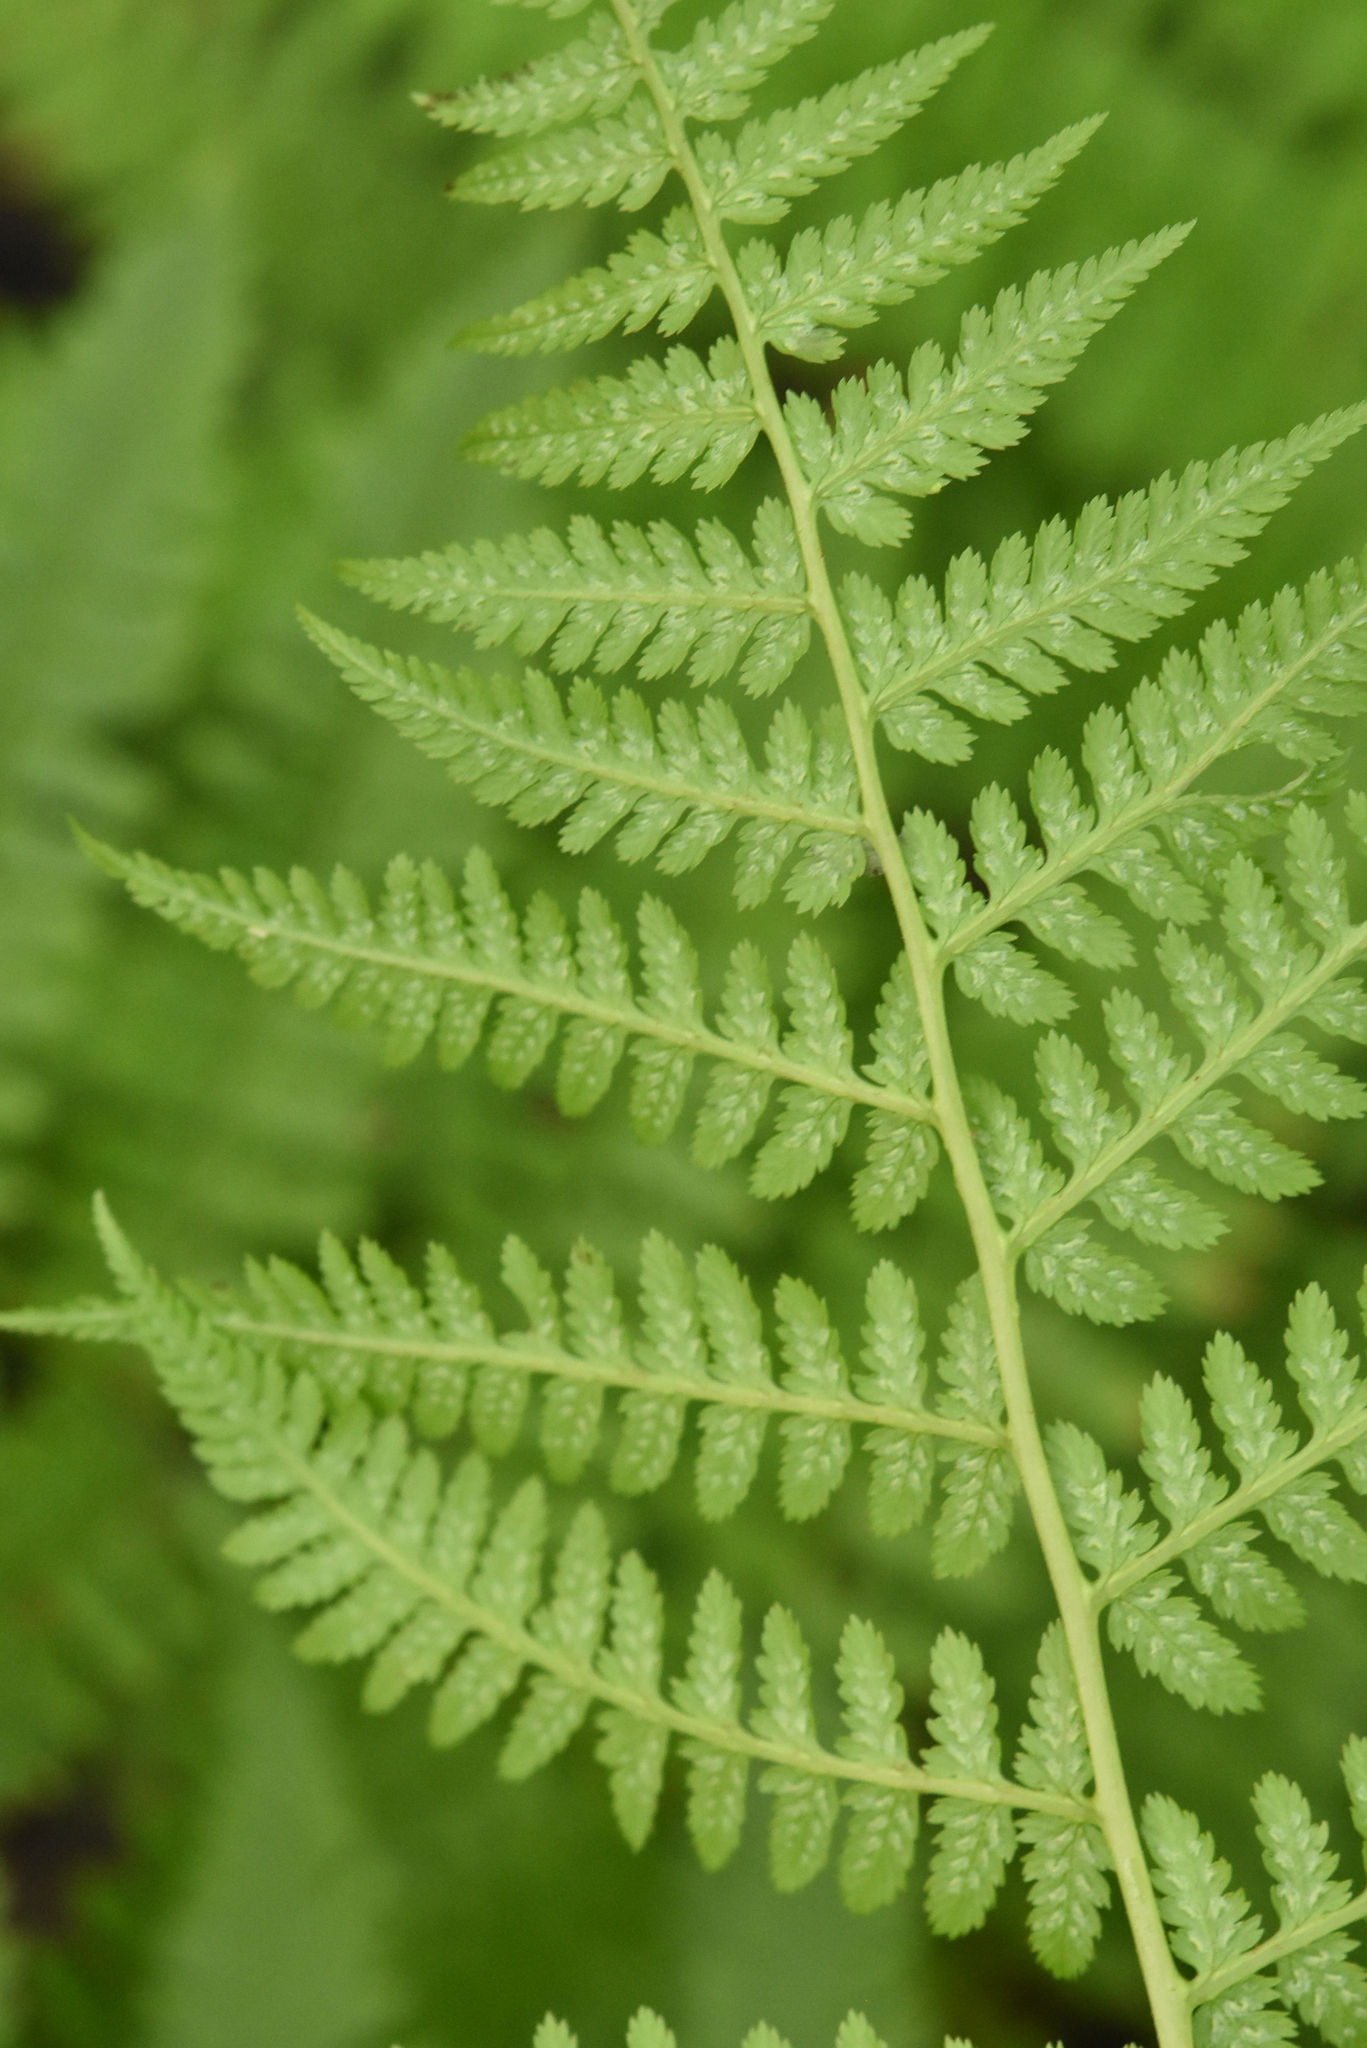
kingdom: Plantae
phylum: Tracheophyta
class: Polypodiopsida
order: Polypodiales
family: Athyriaceae
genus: Athyrium
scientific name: Athyrium filix-femina
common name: Lady fern
